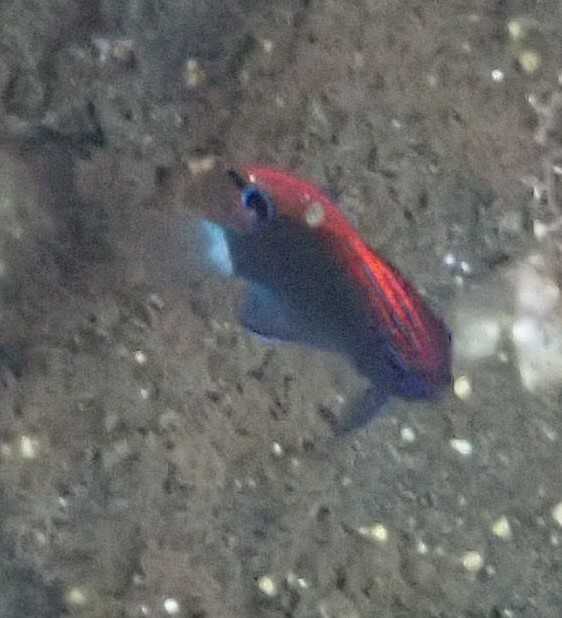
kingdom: Animalia
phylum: Chordata
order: Perciformes
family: Pomacentridae
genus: Pomacentrus
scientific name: Pomacentrus bankanensis
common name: Speckled damsel
